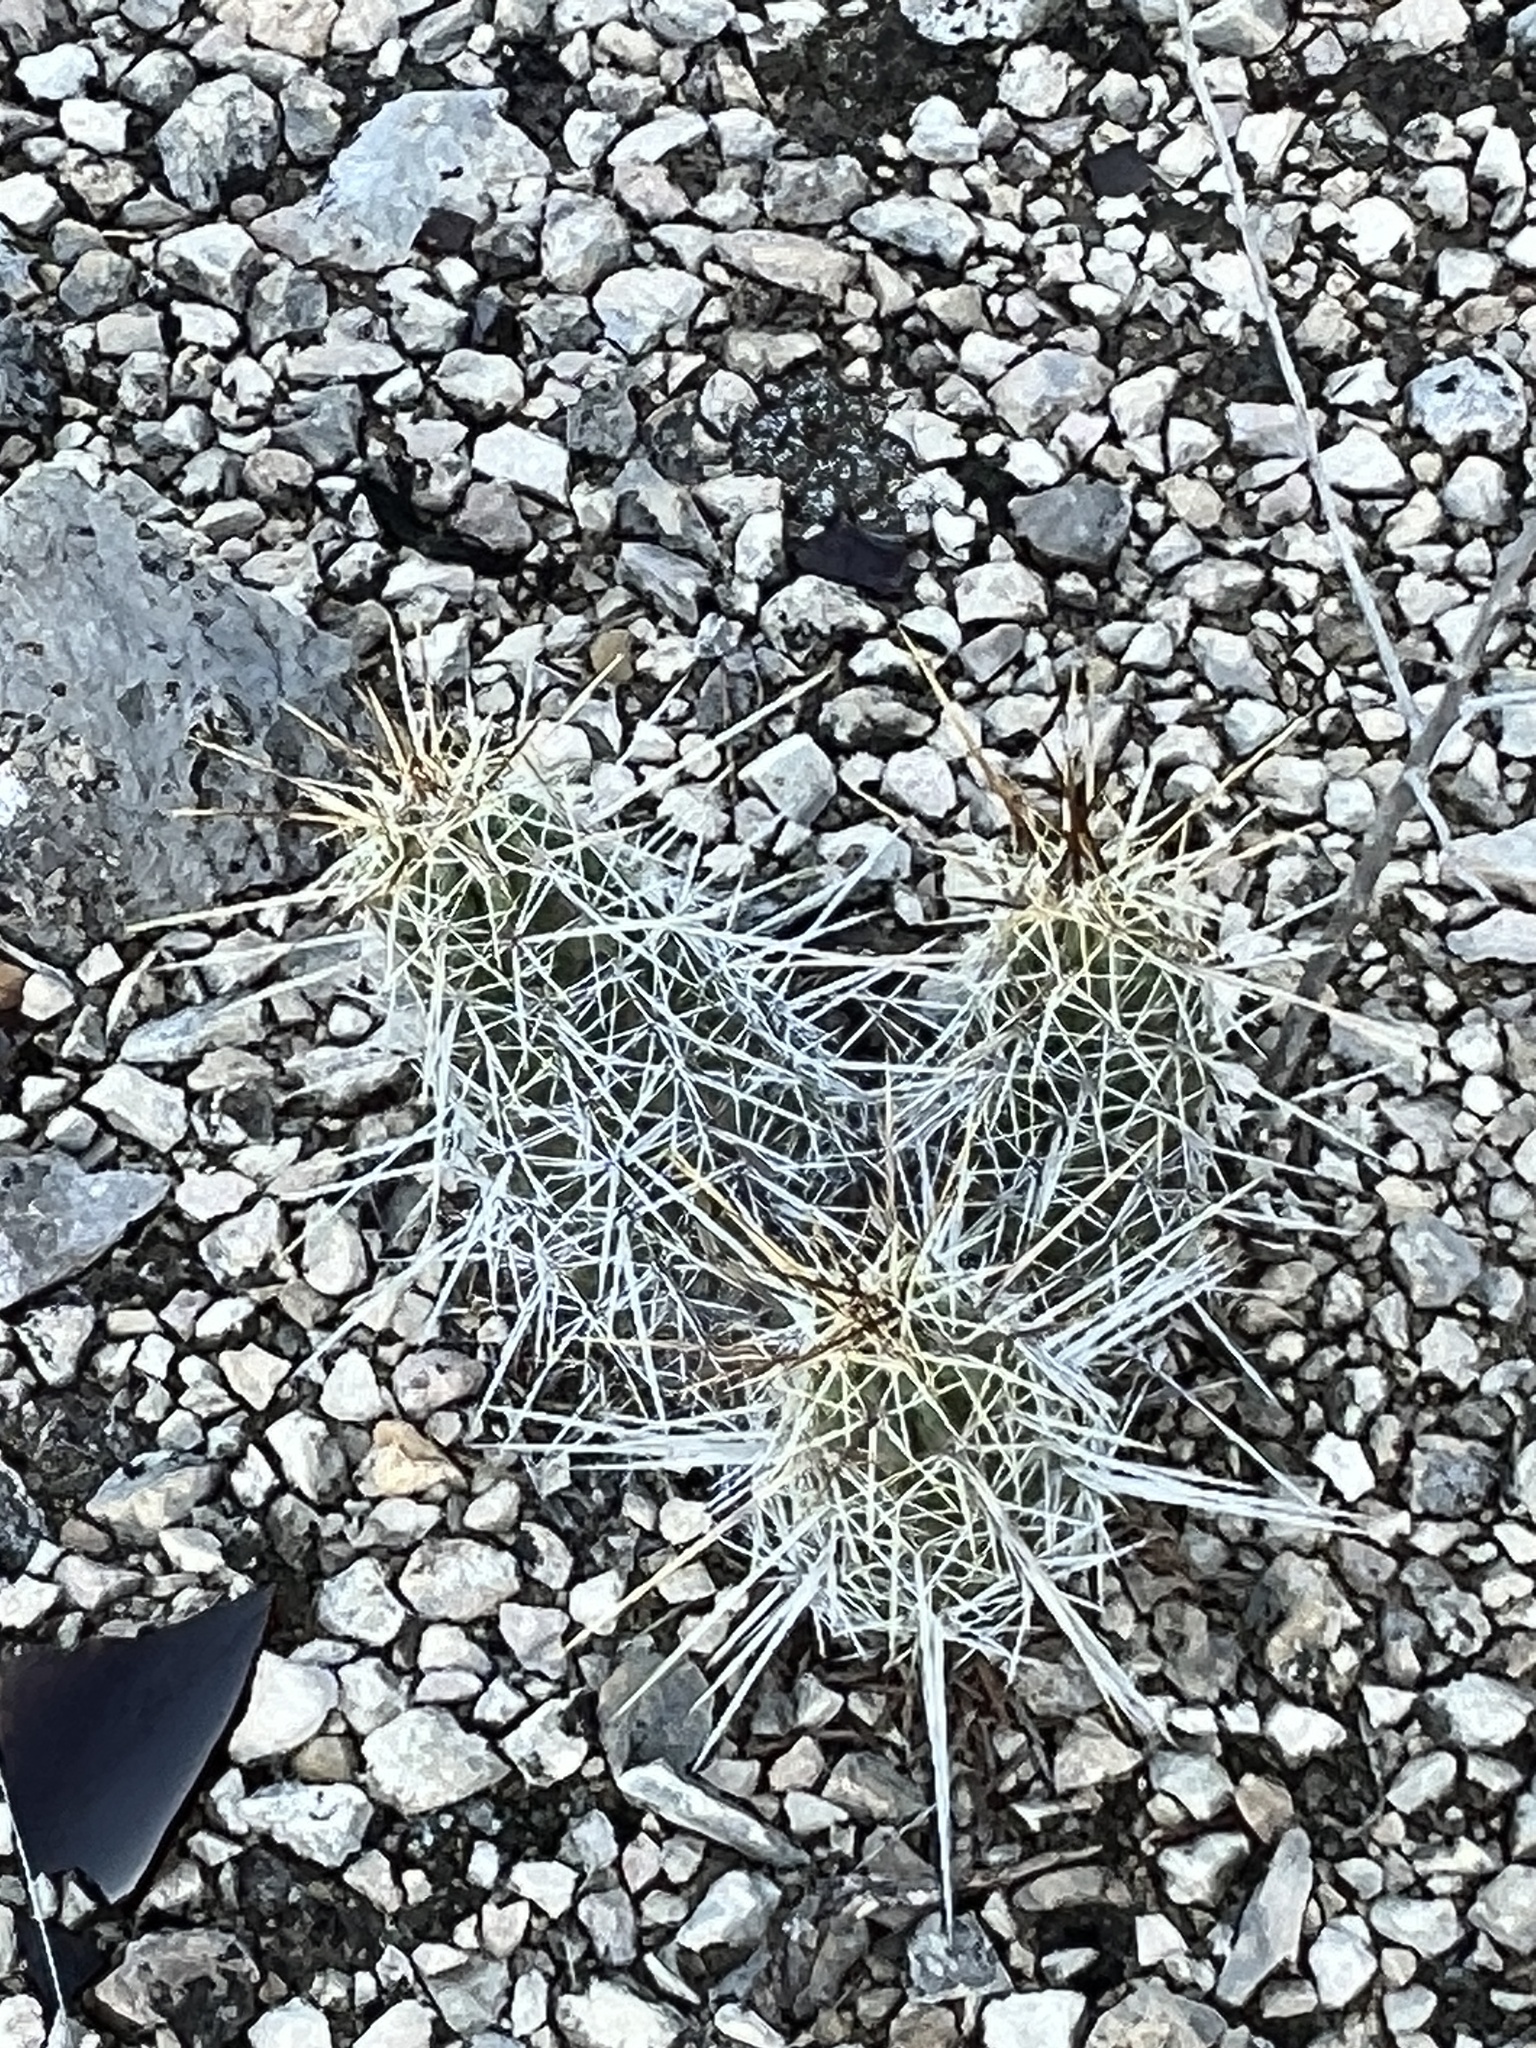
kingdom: Plantae
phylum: Tracheophyta
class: Magnoliopsida
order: Caryophyllales
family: Cactaceae
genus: Echinocereus
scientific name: Echinocereus enneacanthus
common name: Pitaya
